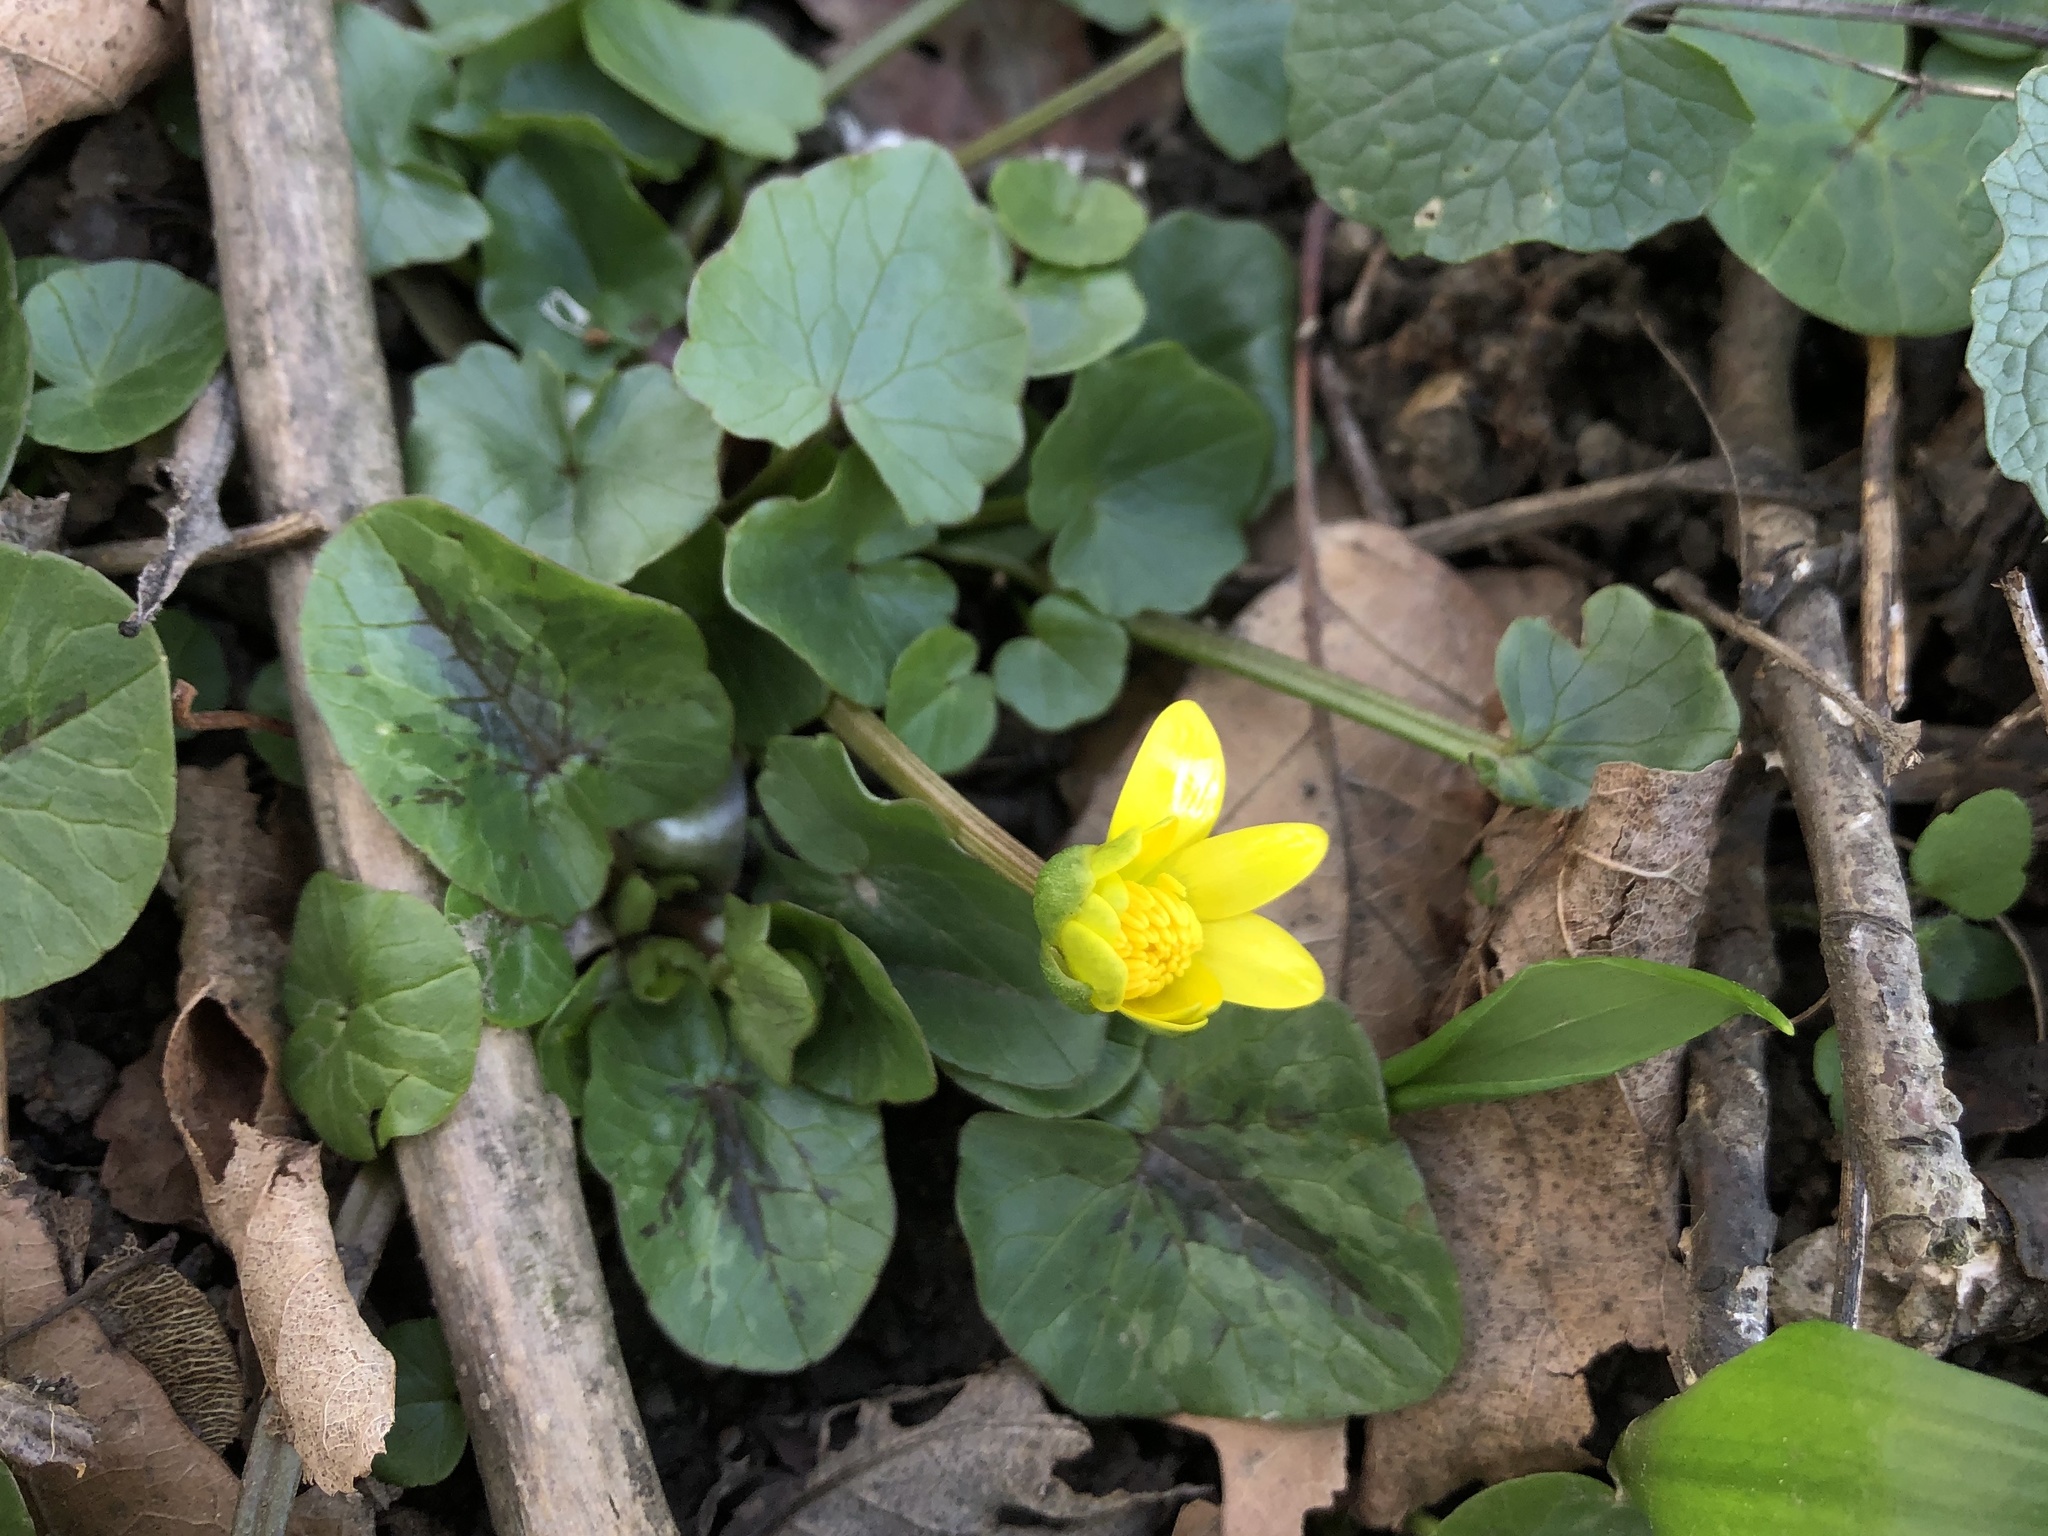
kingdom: Plantae
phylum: Tracheophyta
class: Magnoliopsida
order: Ranunculales
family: Ranunculaceae
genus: Ficaria
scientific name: Ficaria verna
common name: Lesser celandine
